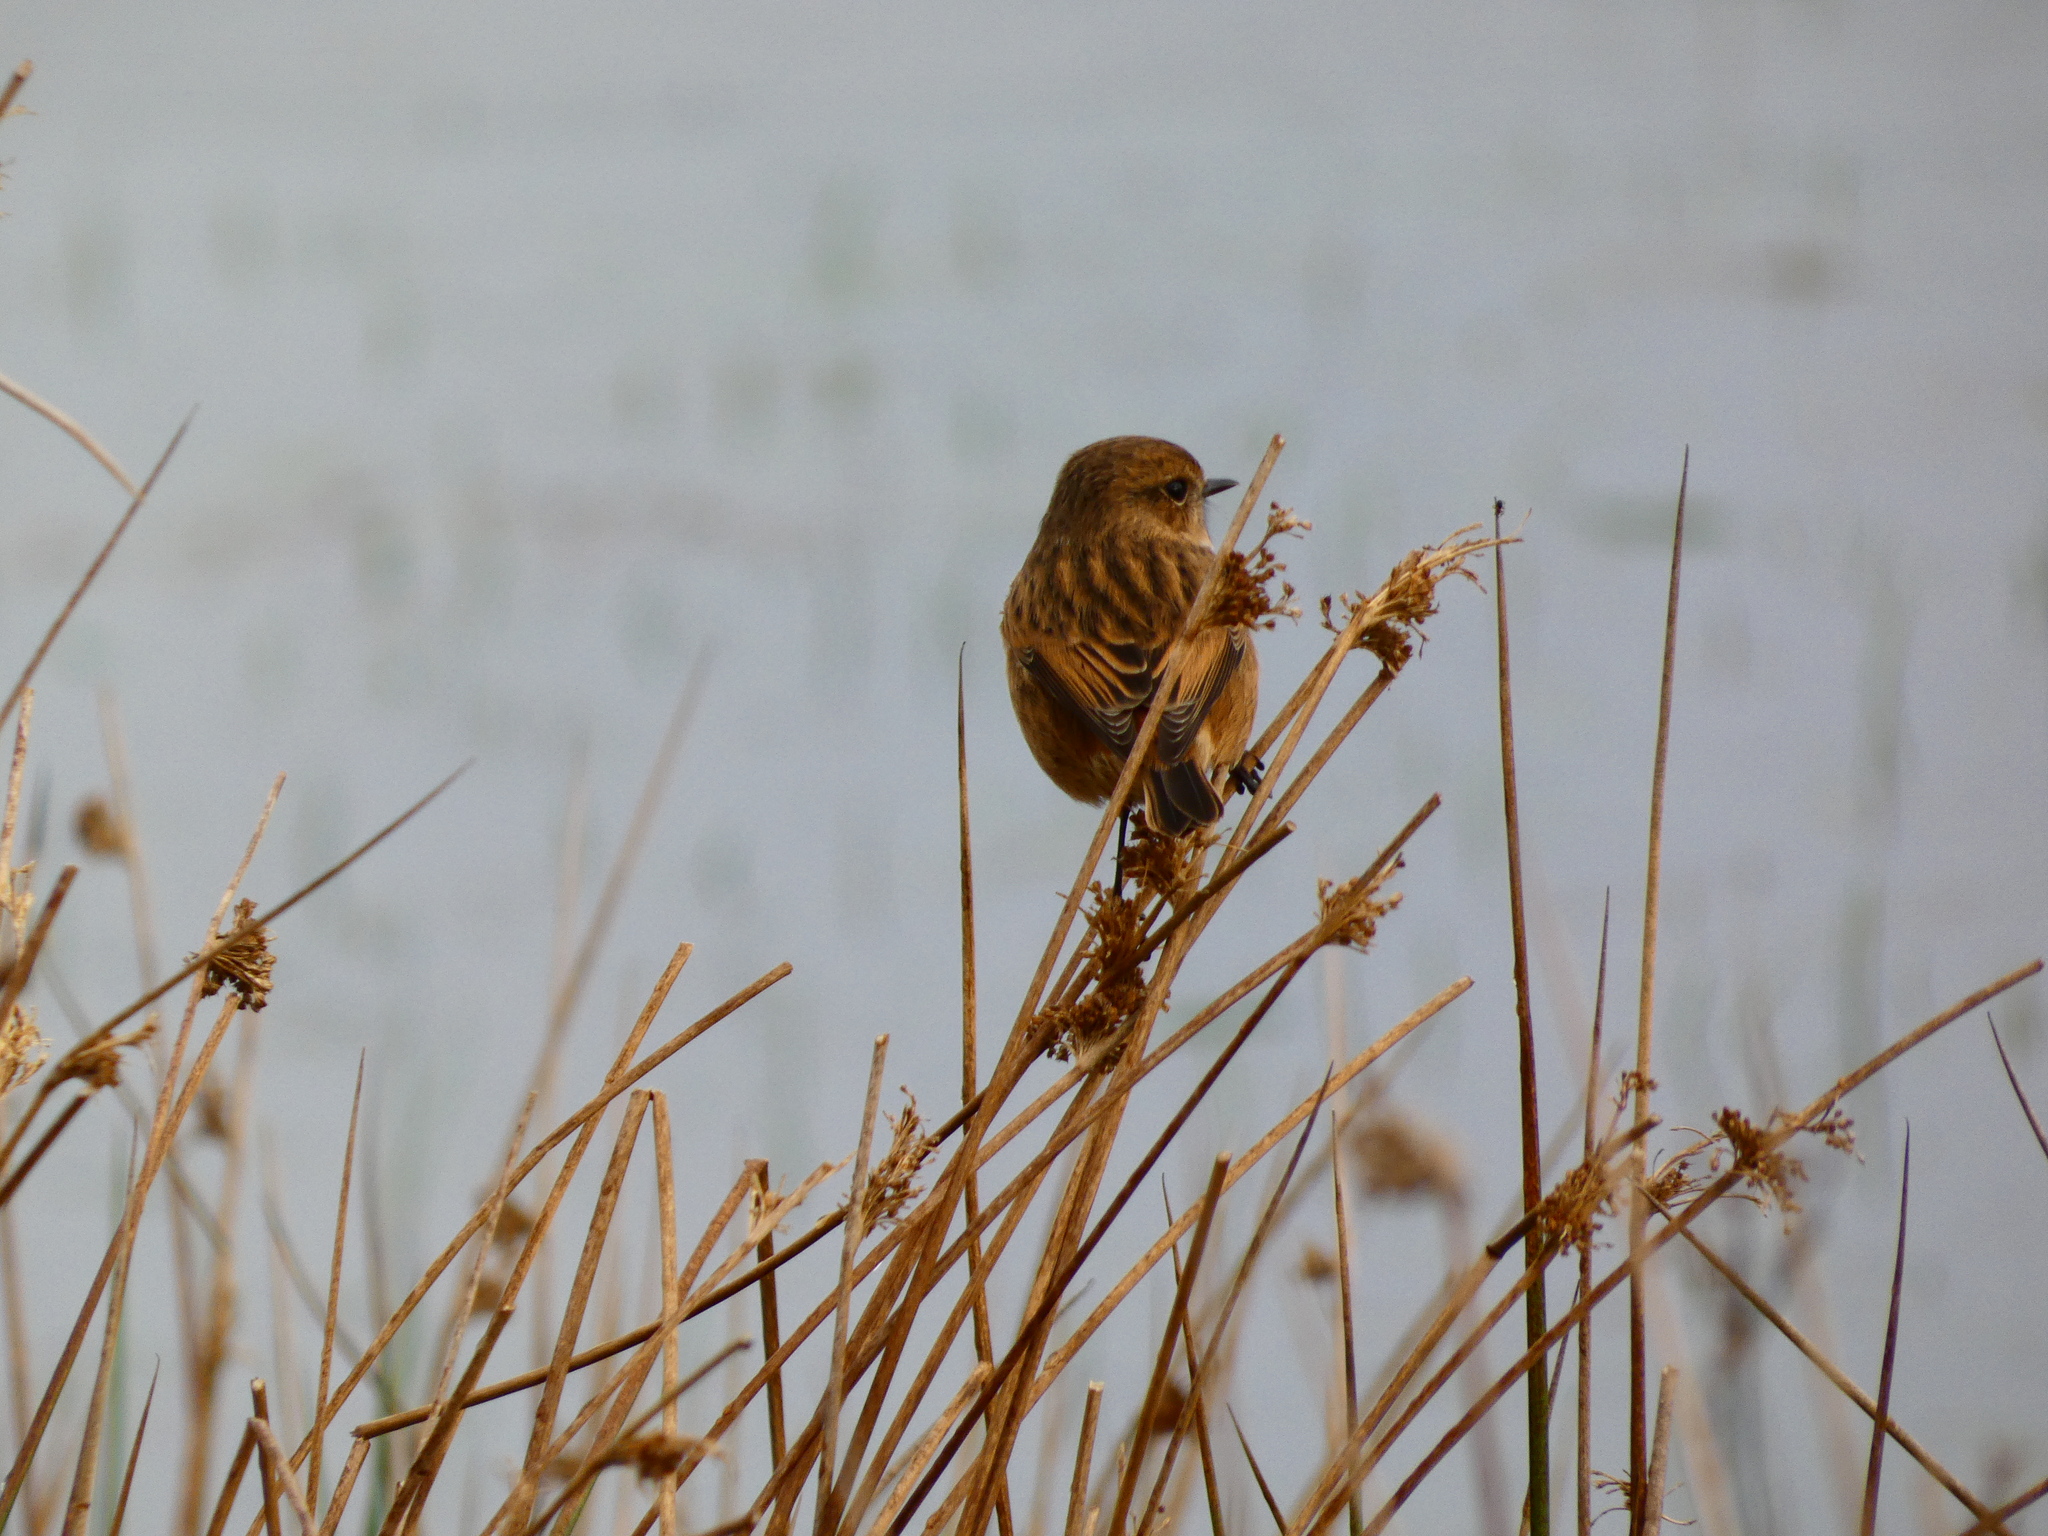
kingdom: Animalia
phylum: Chordata
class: Aves
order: Passeriformes
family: Muscicapidae
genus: Saxicola
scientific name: Saxicola rubicola
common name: European stonechat
